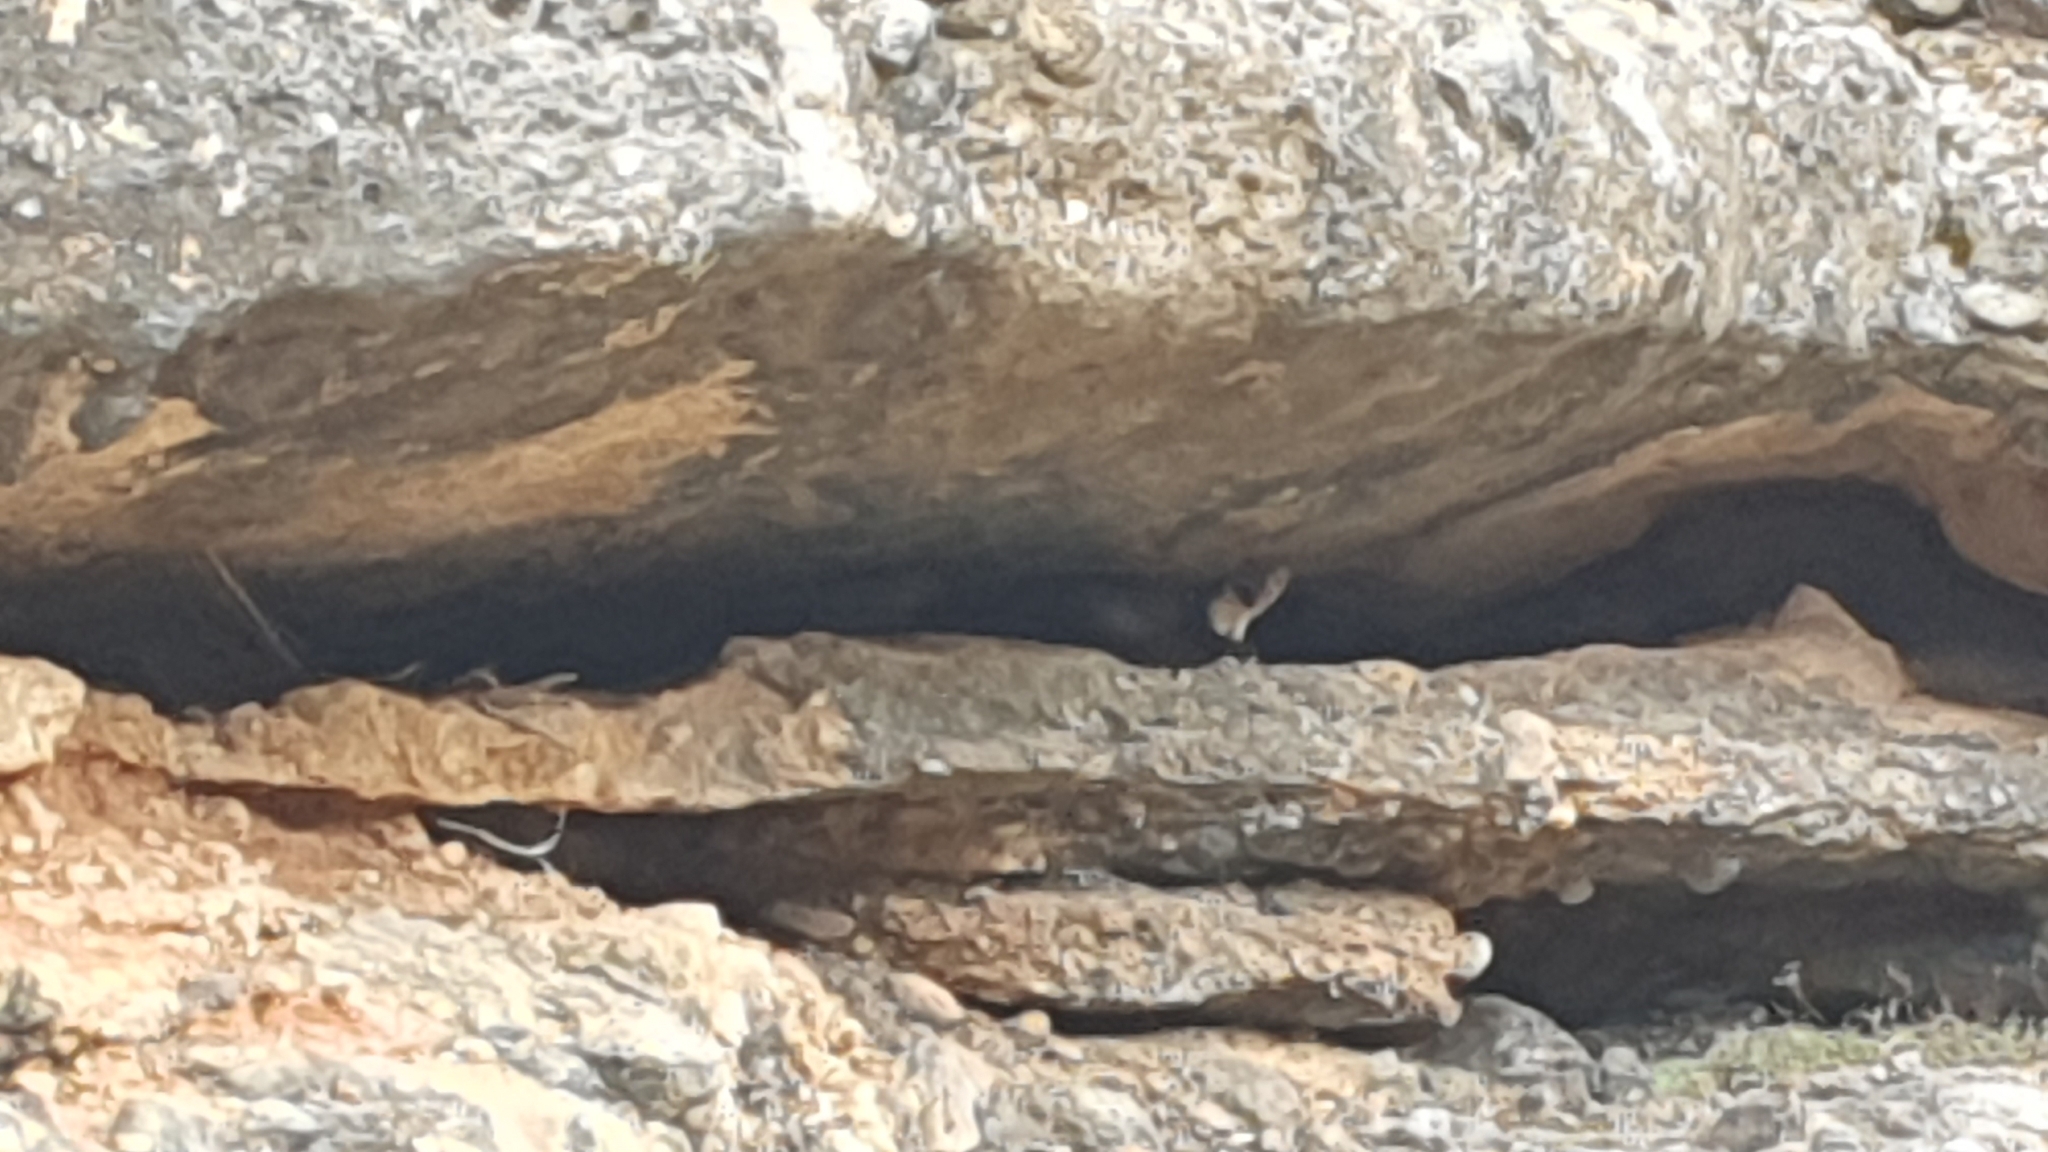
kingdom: Animalia
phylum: Chordata
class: Mammalia
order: Carnivora
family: Mustelidae
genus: Martes
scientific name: Martes foina
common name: Beech marten
